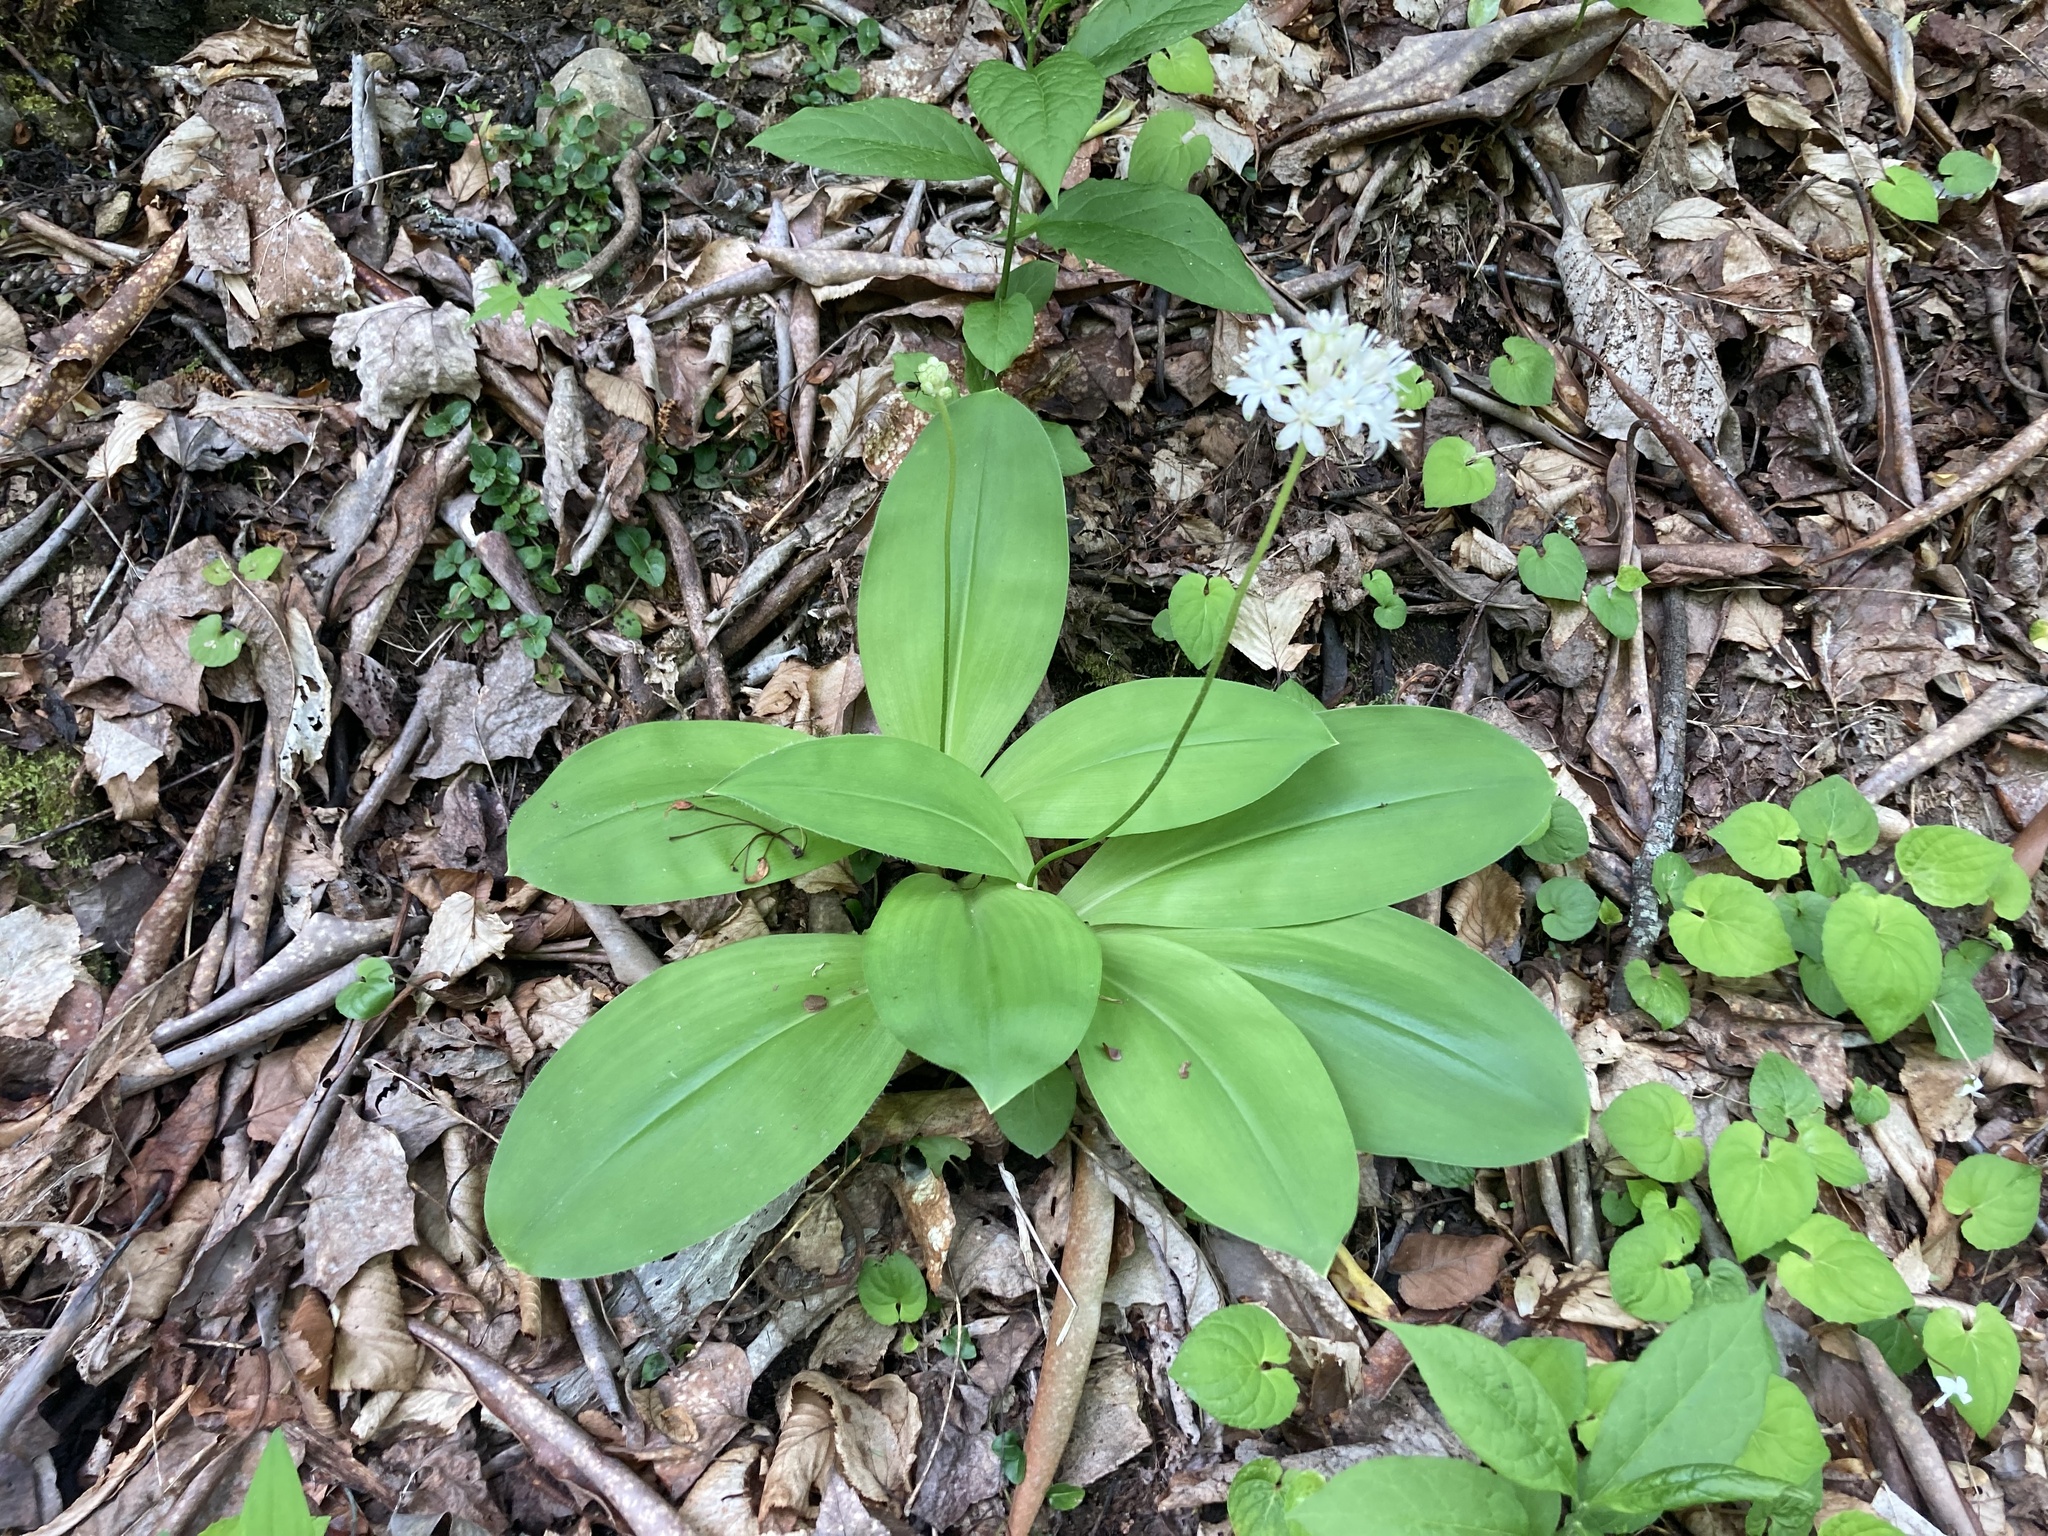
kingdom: Plantae
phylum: Tracheophyta
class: Liliopsida
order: Liliales
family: Liliaceae
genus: Clintonia
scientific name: Clintonia umbellulata
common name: Speckle wood-lily
